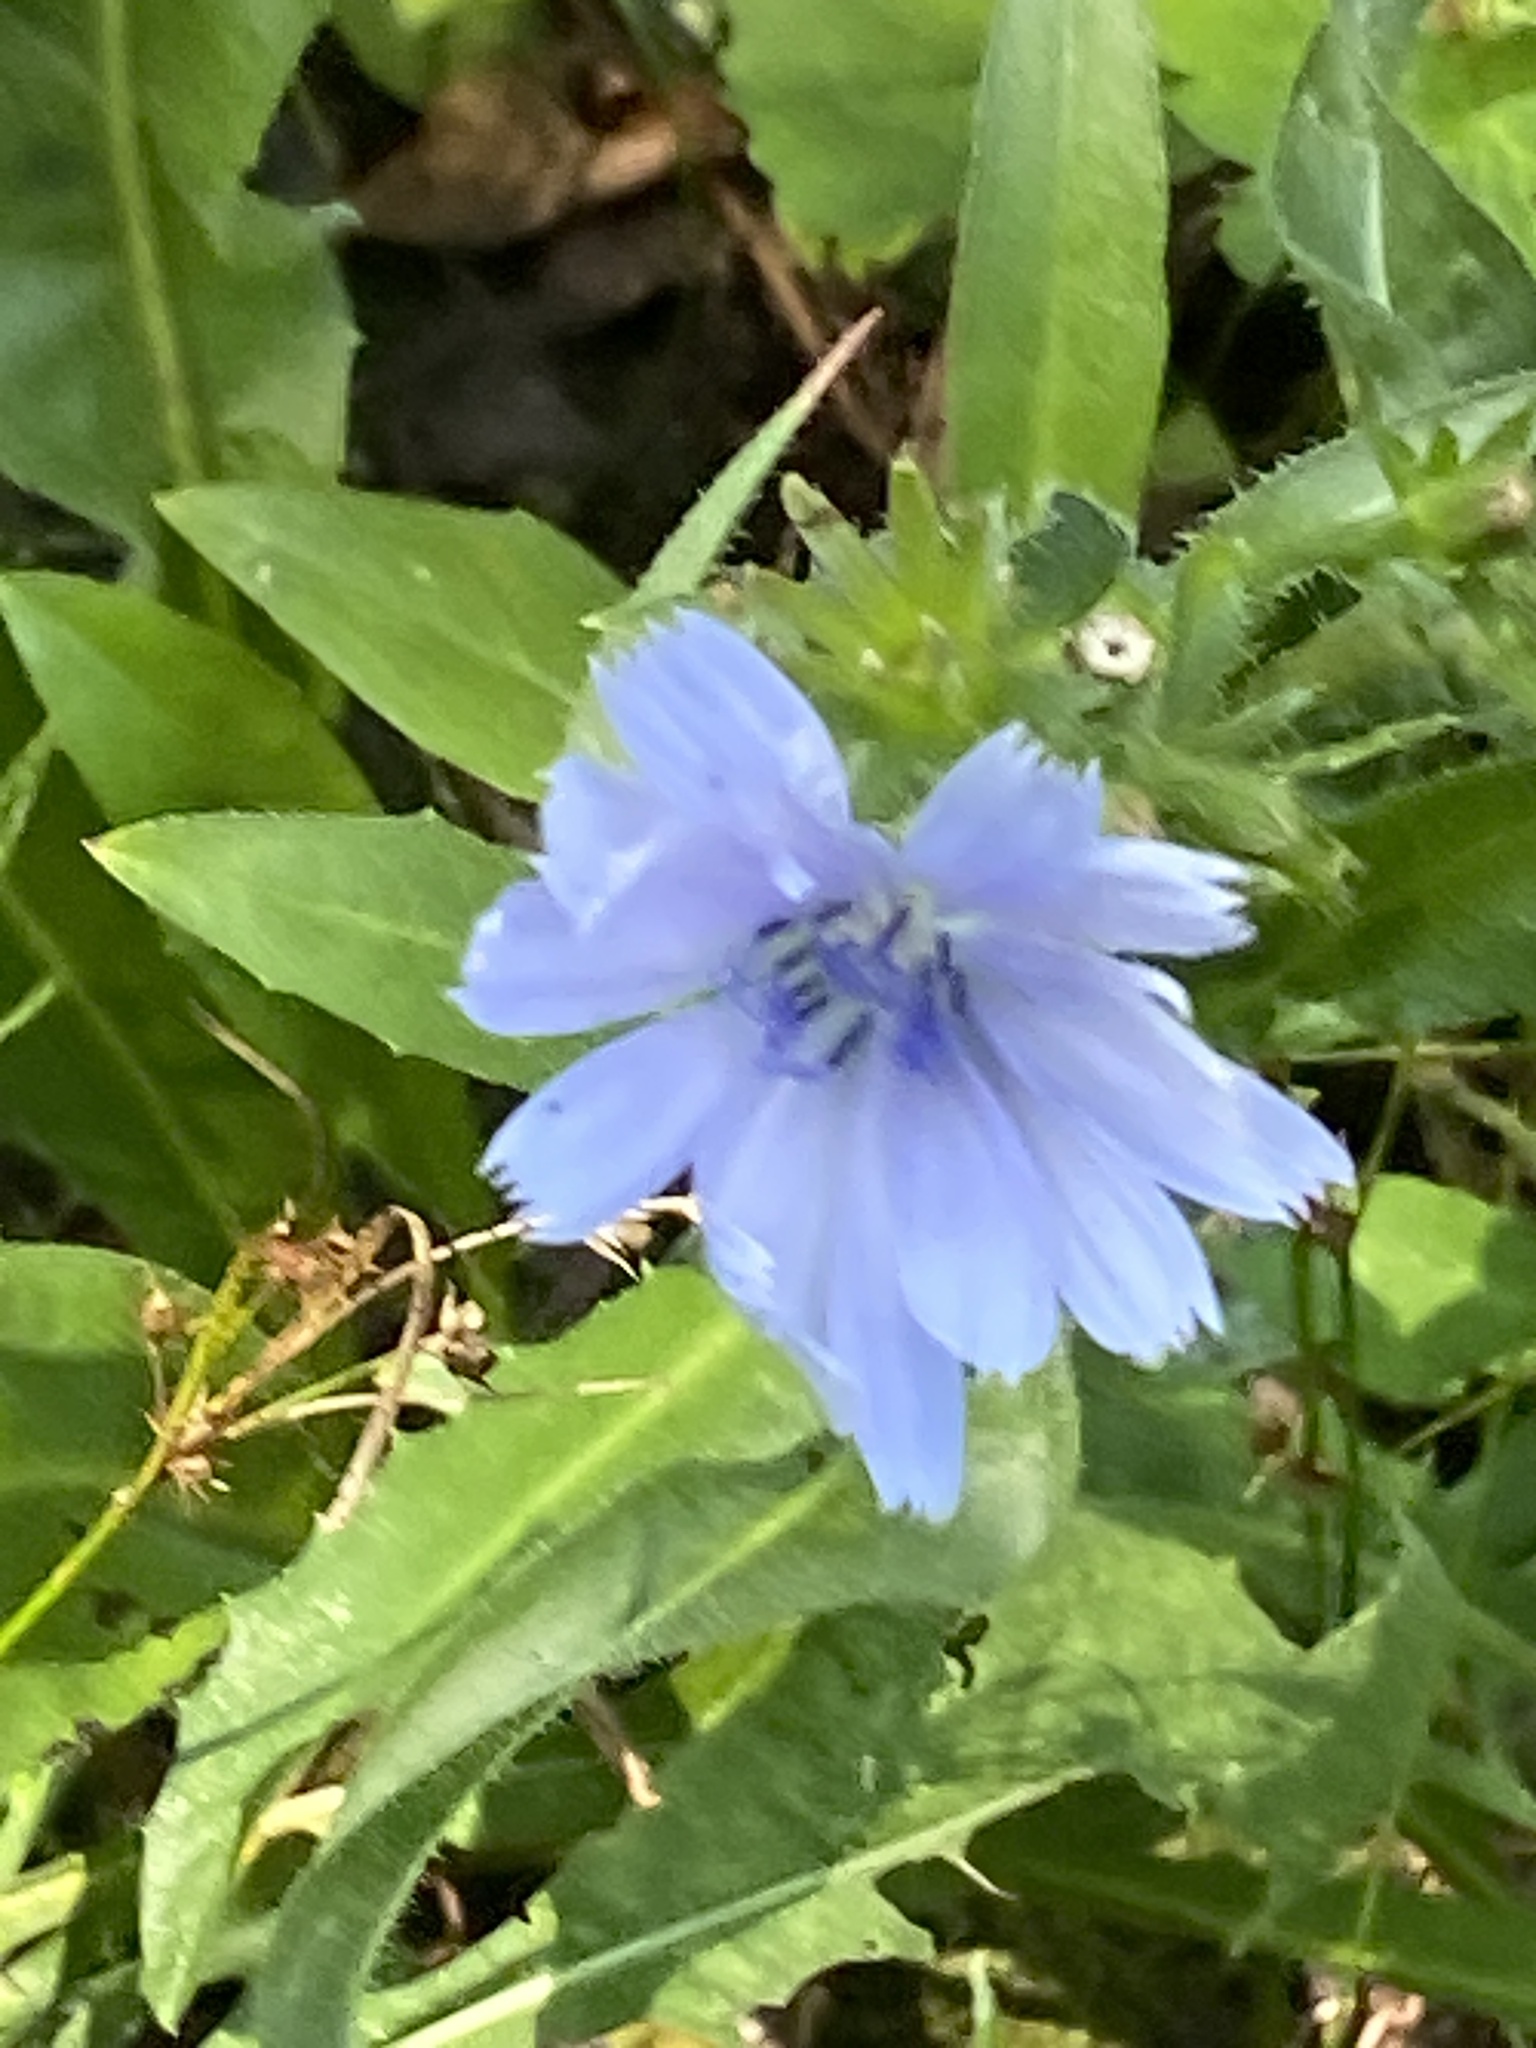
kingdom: Plantae
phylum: Tracheophyta
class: Magnoliopsida
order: Asterales
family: Asteraceae
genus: Cichorium
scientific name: Cichorium intybus
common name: Chicory
